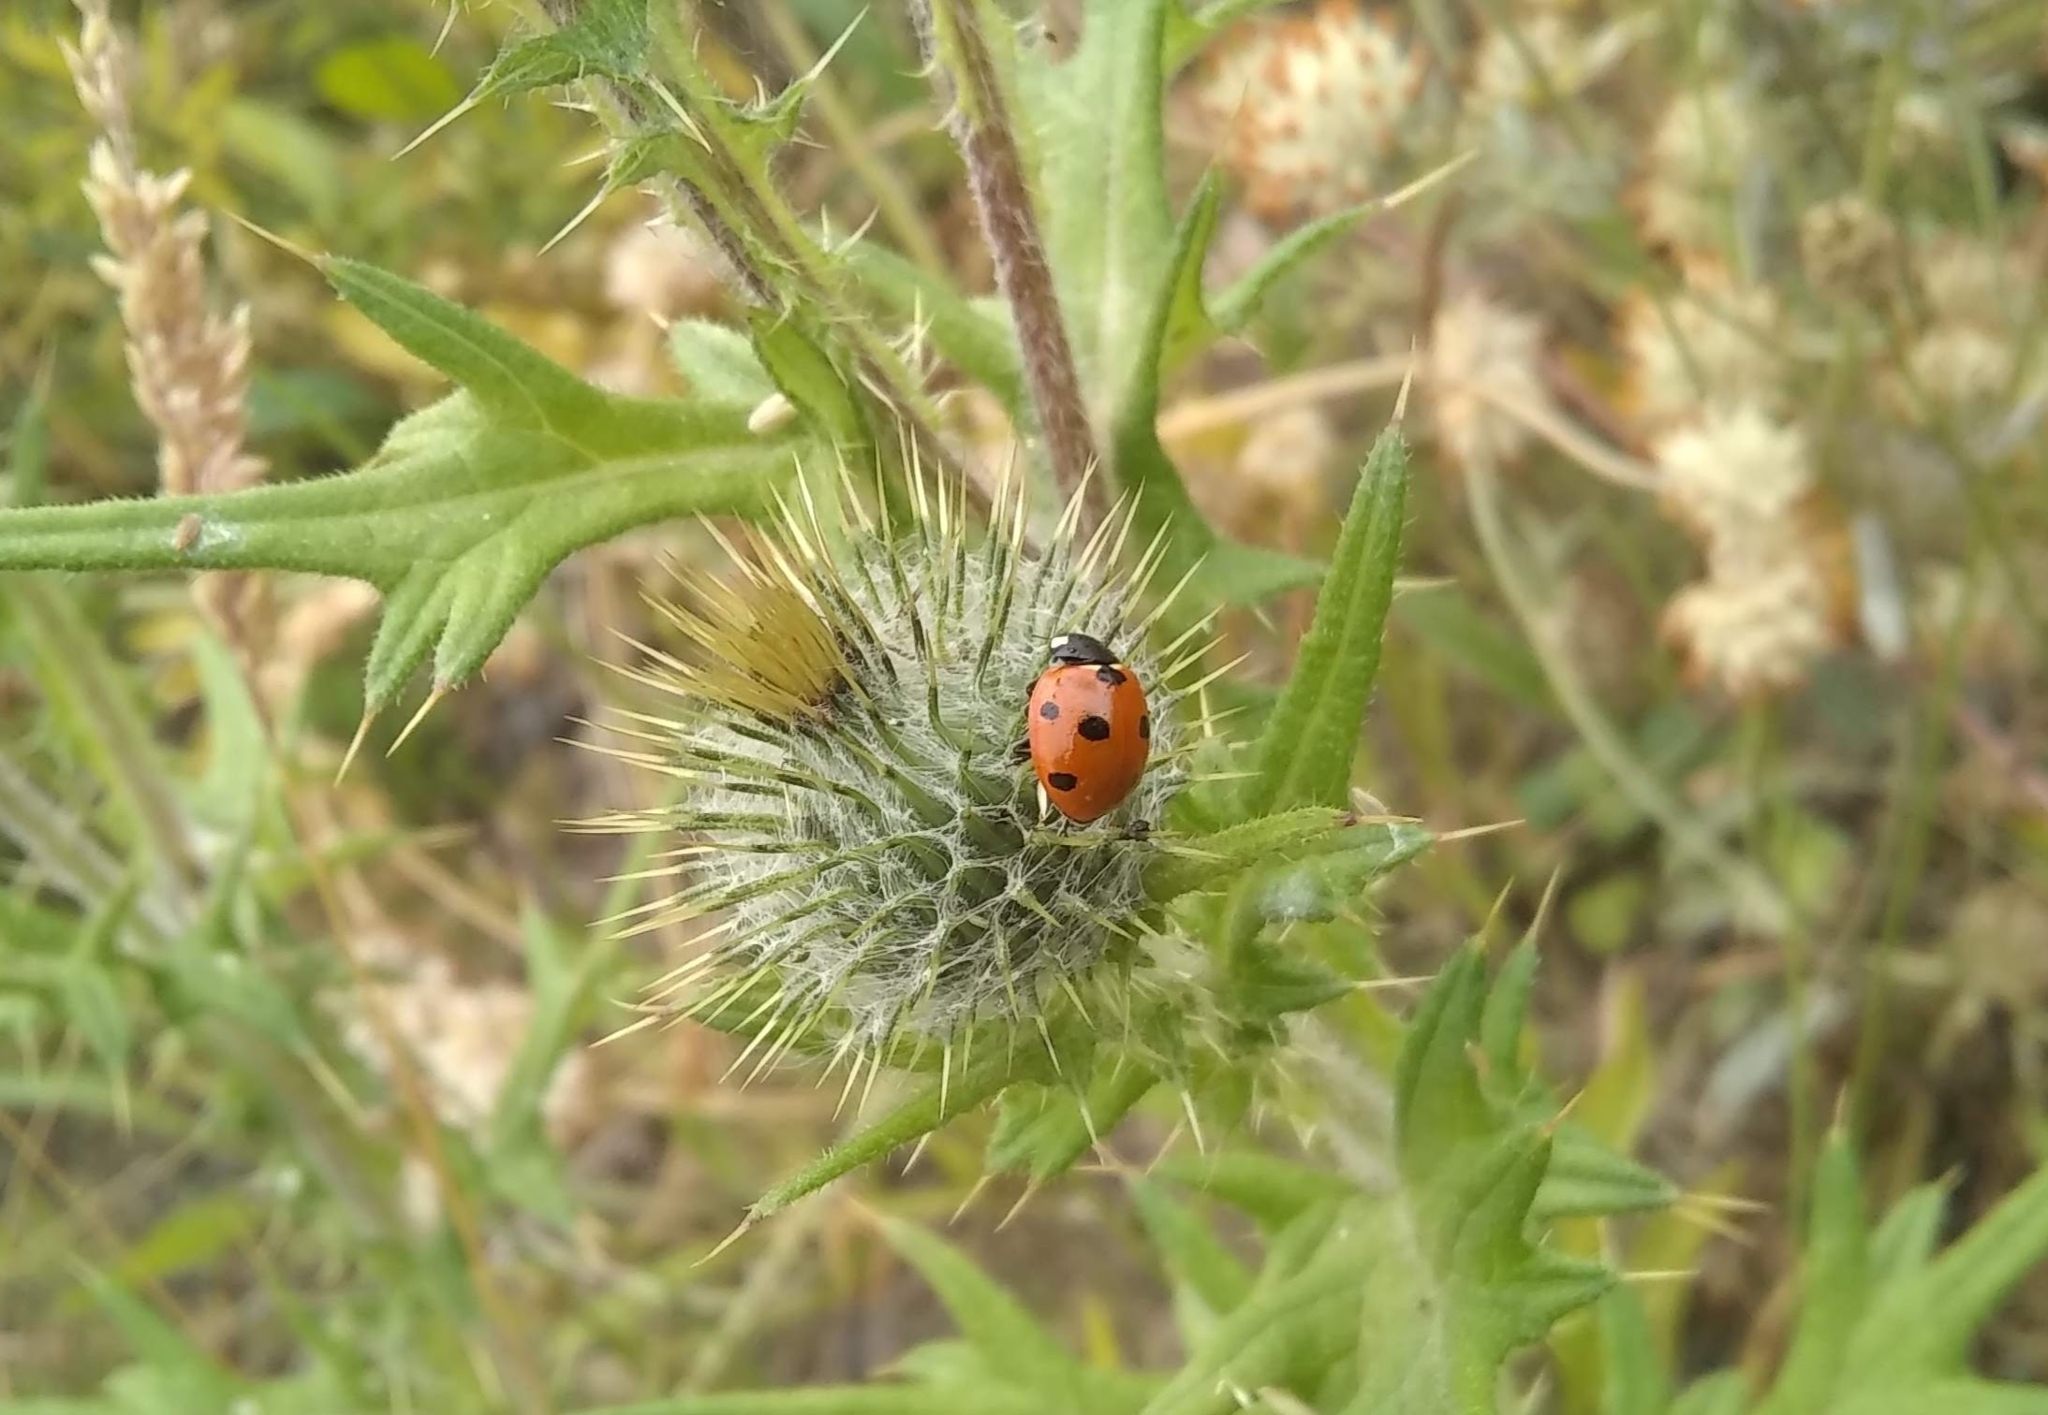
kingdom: Animalia
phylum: Arthropoda
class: Insecta
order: Coleoptera
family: Coccinellidae
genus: Coccinella
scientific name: Coccinella septempunctata
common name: Sevenspotted lady beetle
